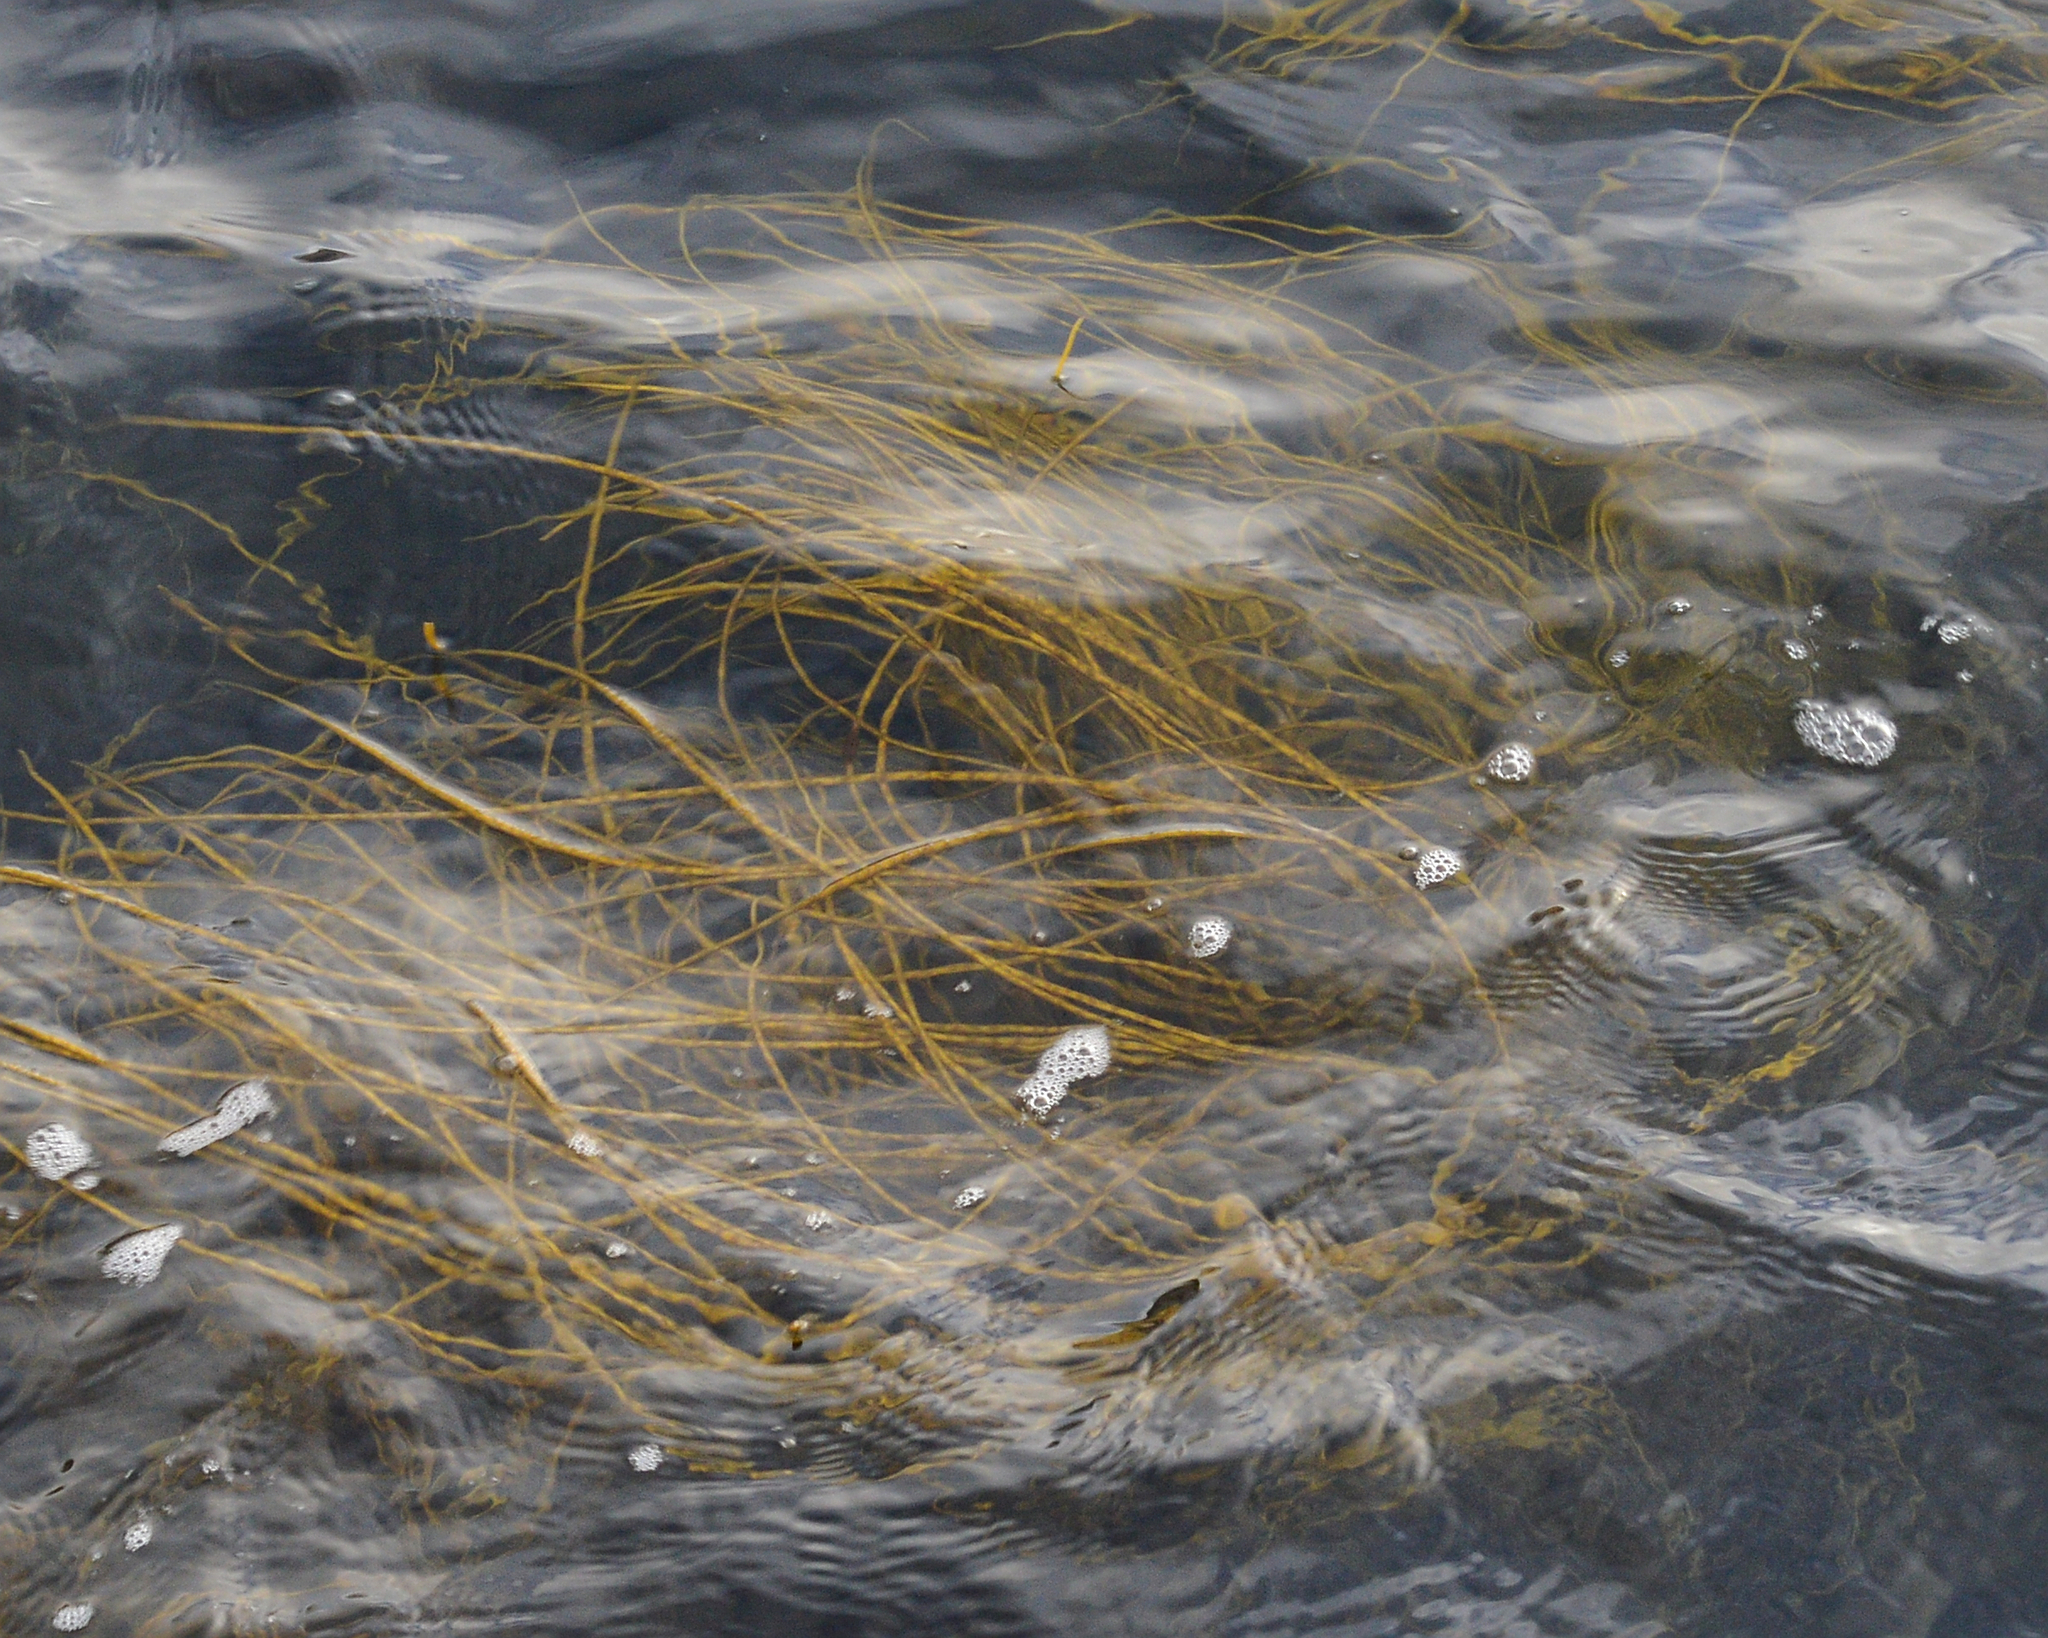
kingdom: Chromista
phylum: Ochrophyta
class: Phaeophyceae
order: Fucales
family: Himanthaliaceae
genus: Himanthalia
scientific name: Himanthalia elongata
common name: Sea-thong
